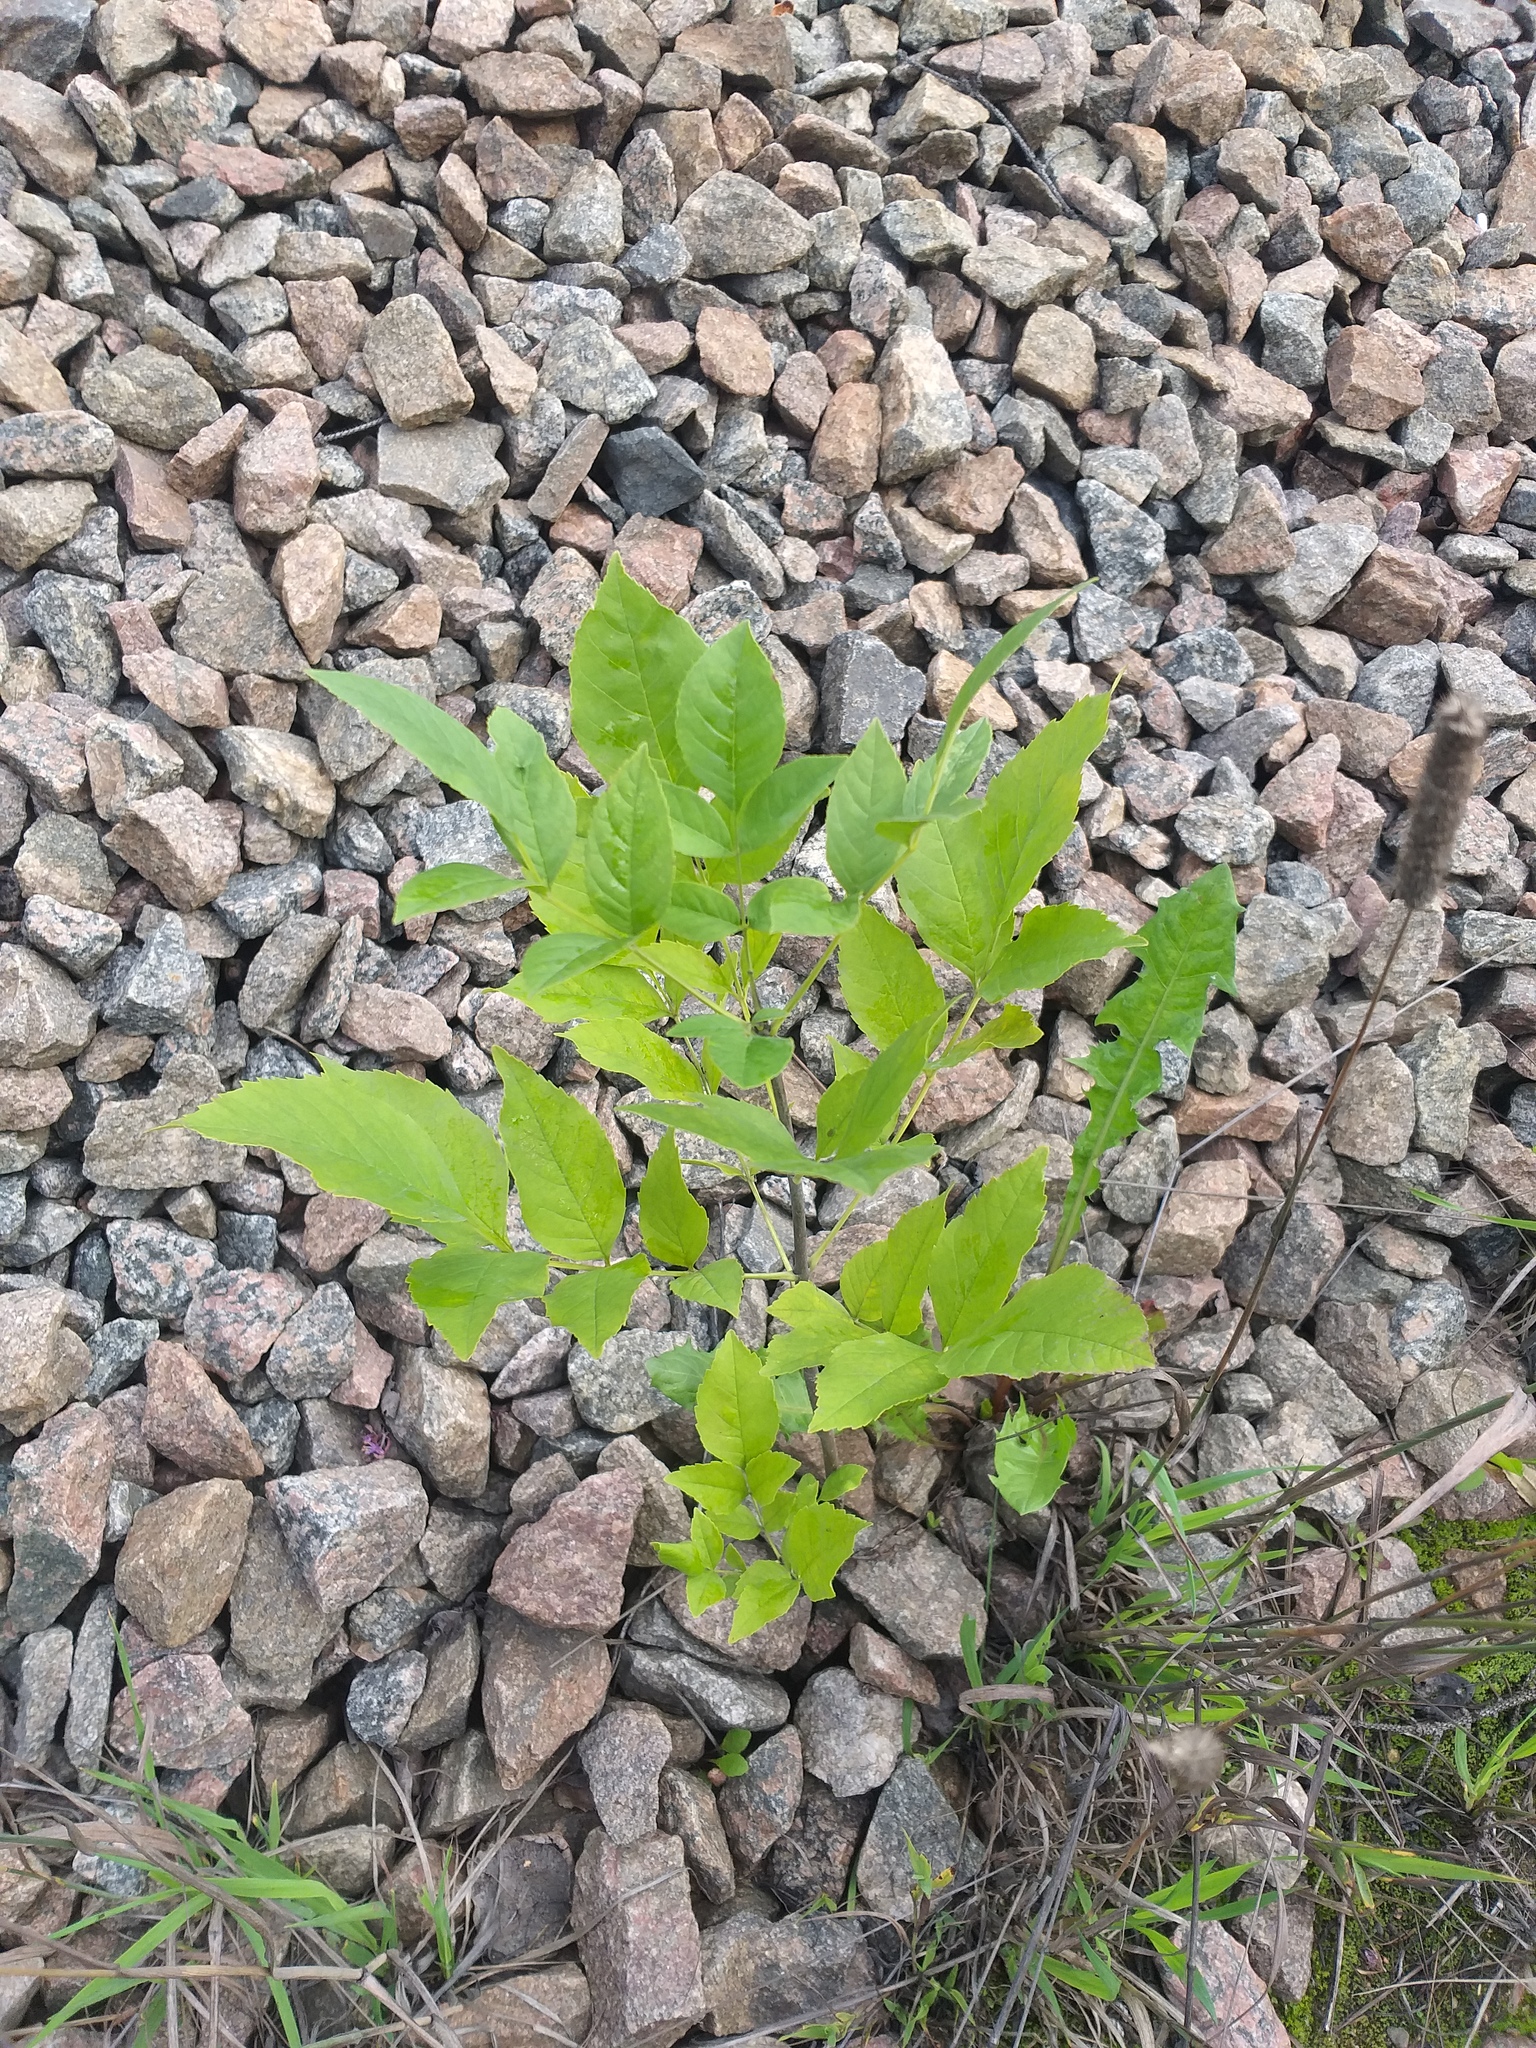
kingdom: Plantae
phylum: Tracheophyta
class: Magnoliopsida
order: Lamiales
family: Oleaceae
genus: Fraxinus
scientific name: Fraxinus excelsior
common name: European ash
